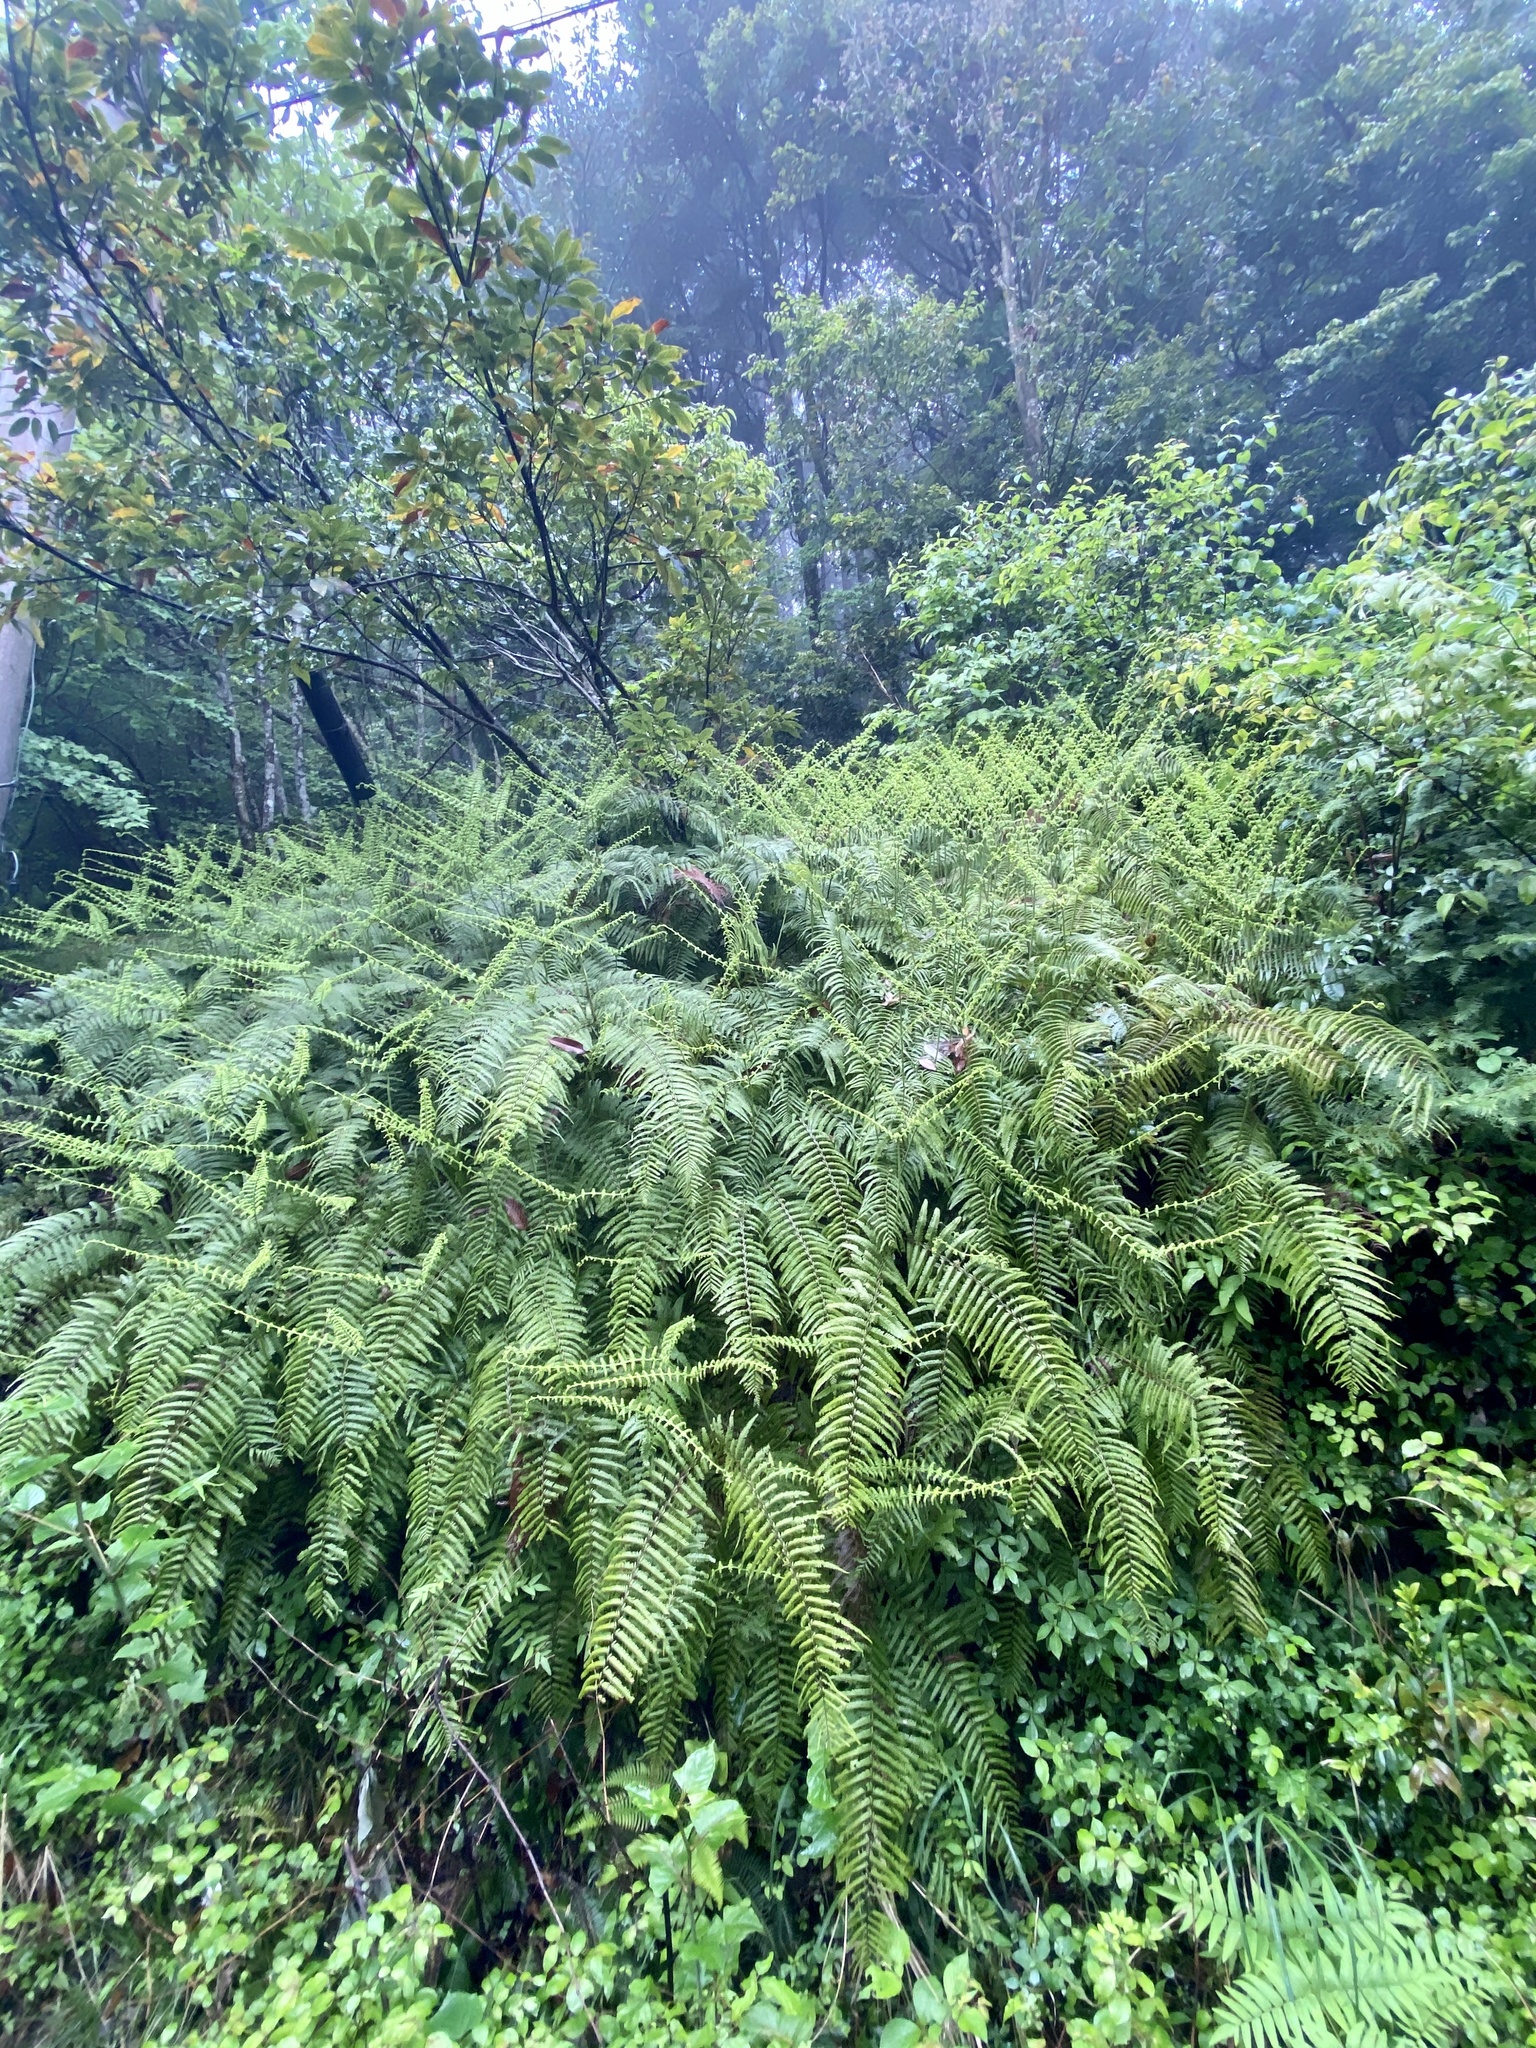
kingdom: Plantae
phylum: Tracheophyta
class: Polypodiopsida
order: Gleicheniales
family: Gleicheniaceae
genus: Diplopterygium
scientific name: Diplopterygium glaucum
